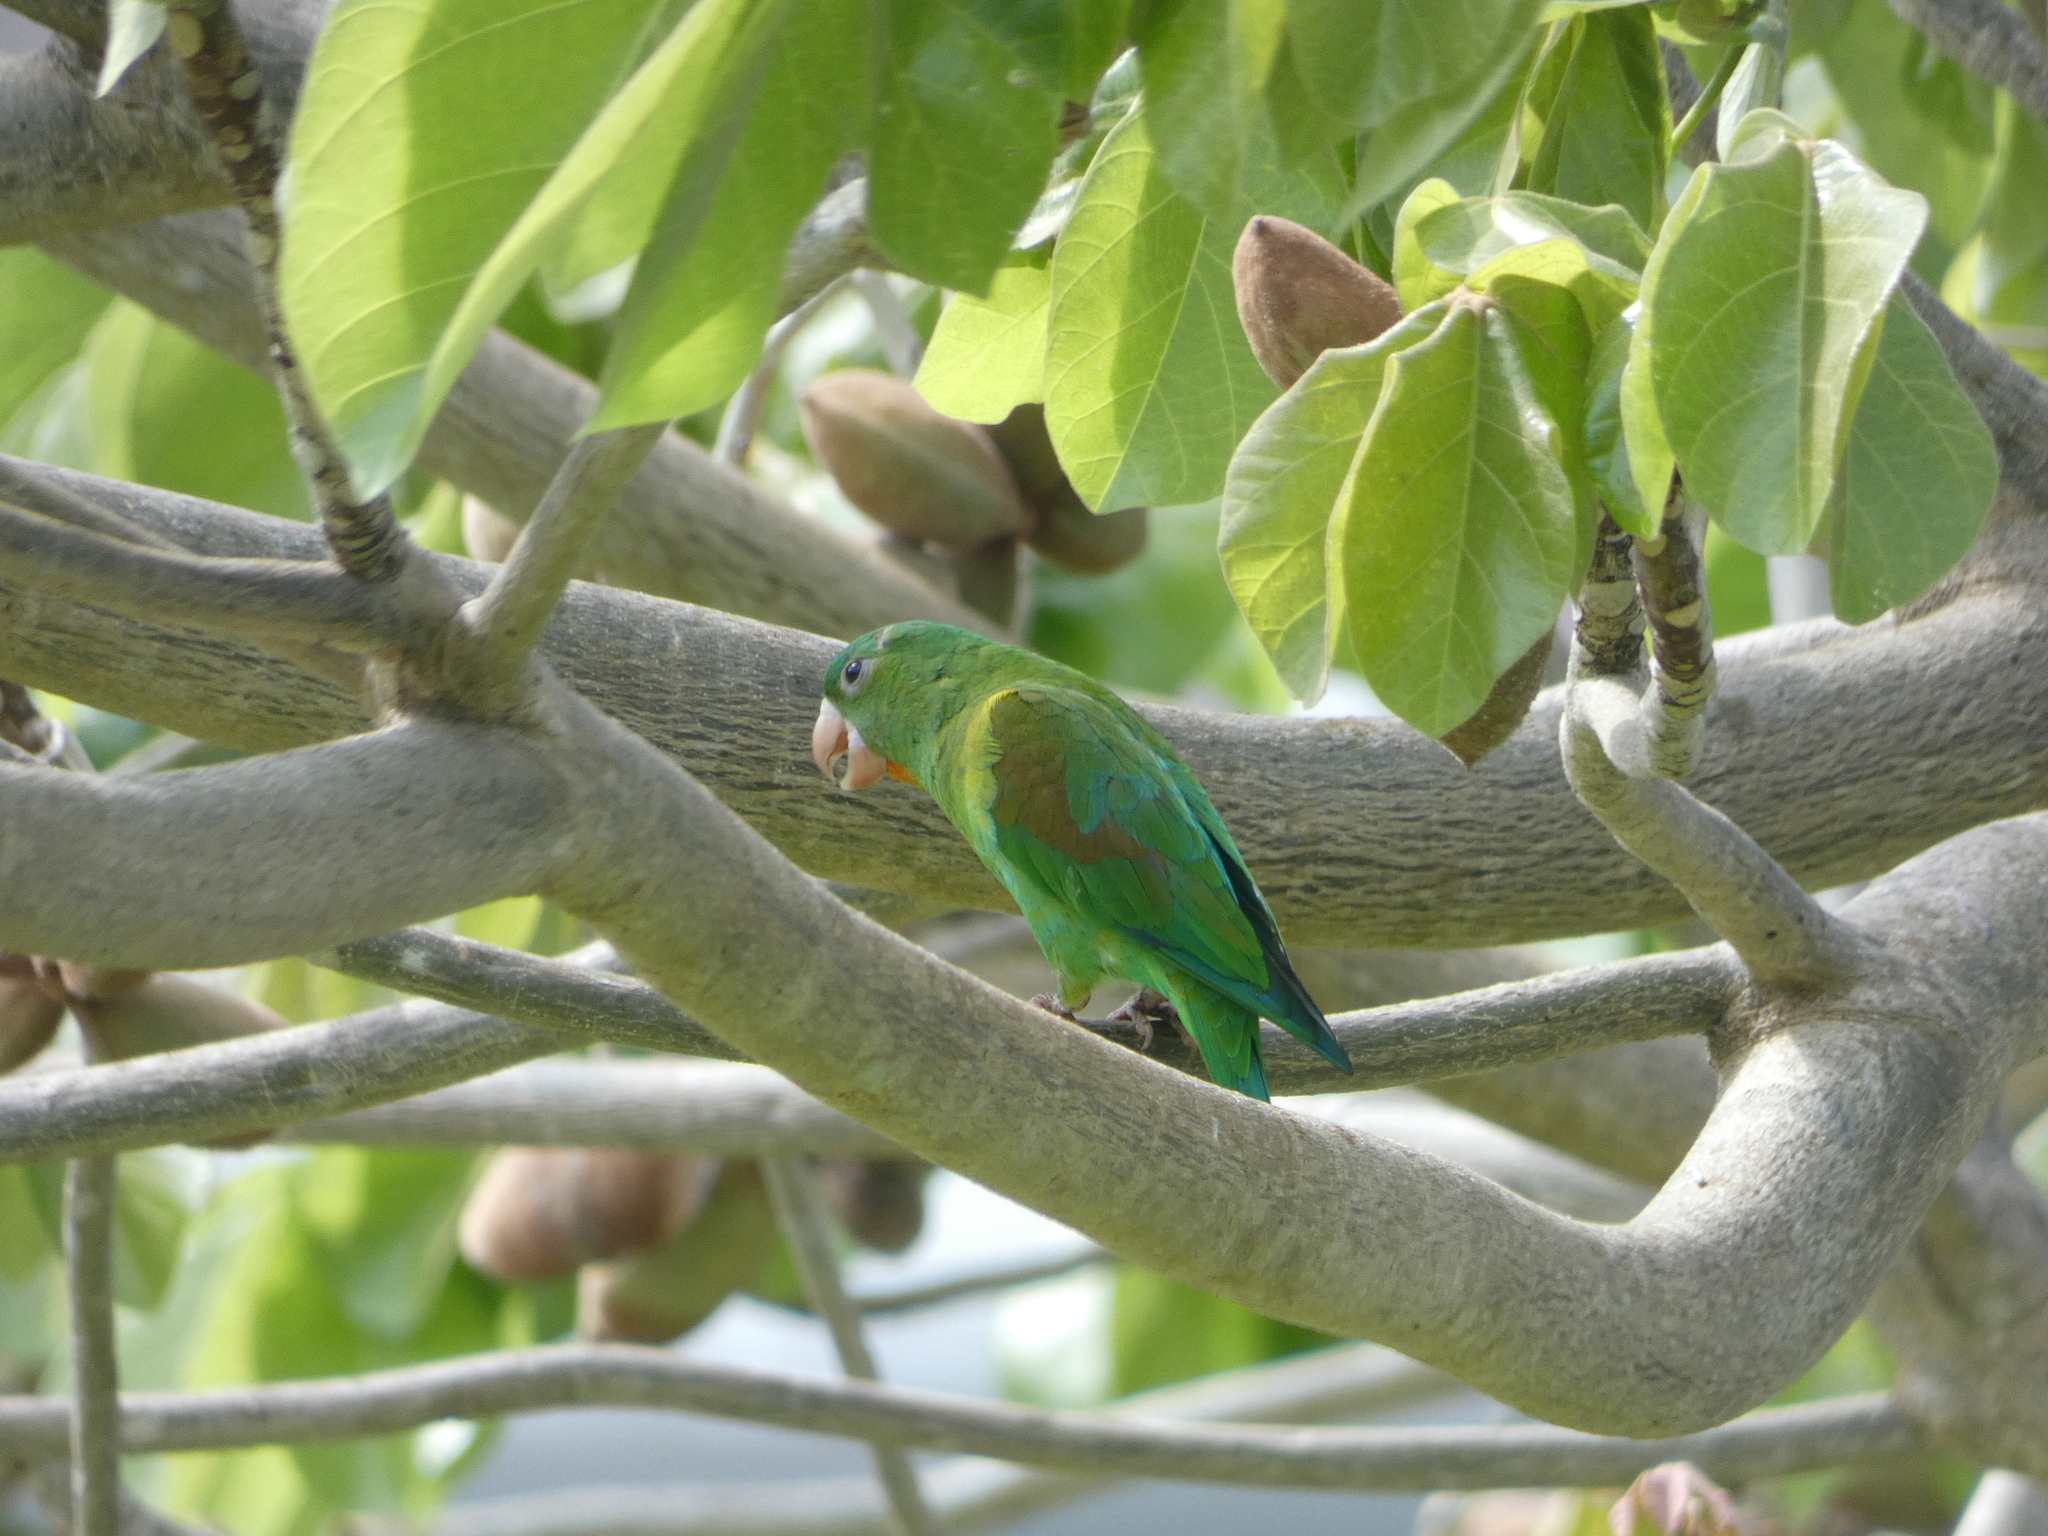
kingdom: Animalia
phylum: Chordata
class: Aves
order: Psittaciformes
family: Psittacidae
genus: Brotogeris
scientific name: Brotogeris jugularis
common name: Orange-chinned parakeet
